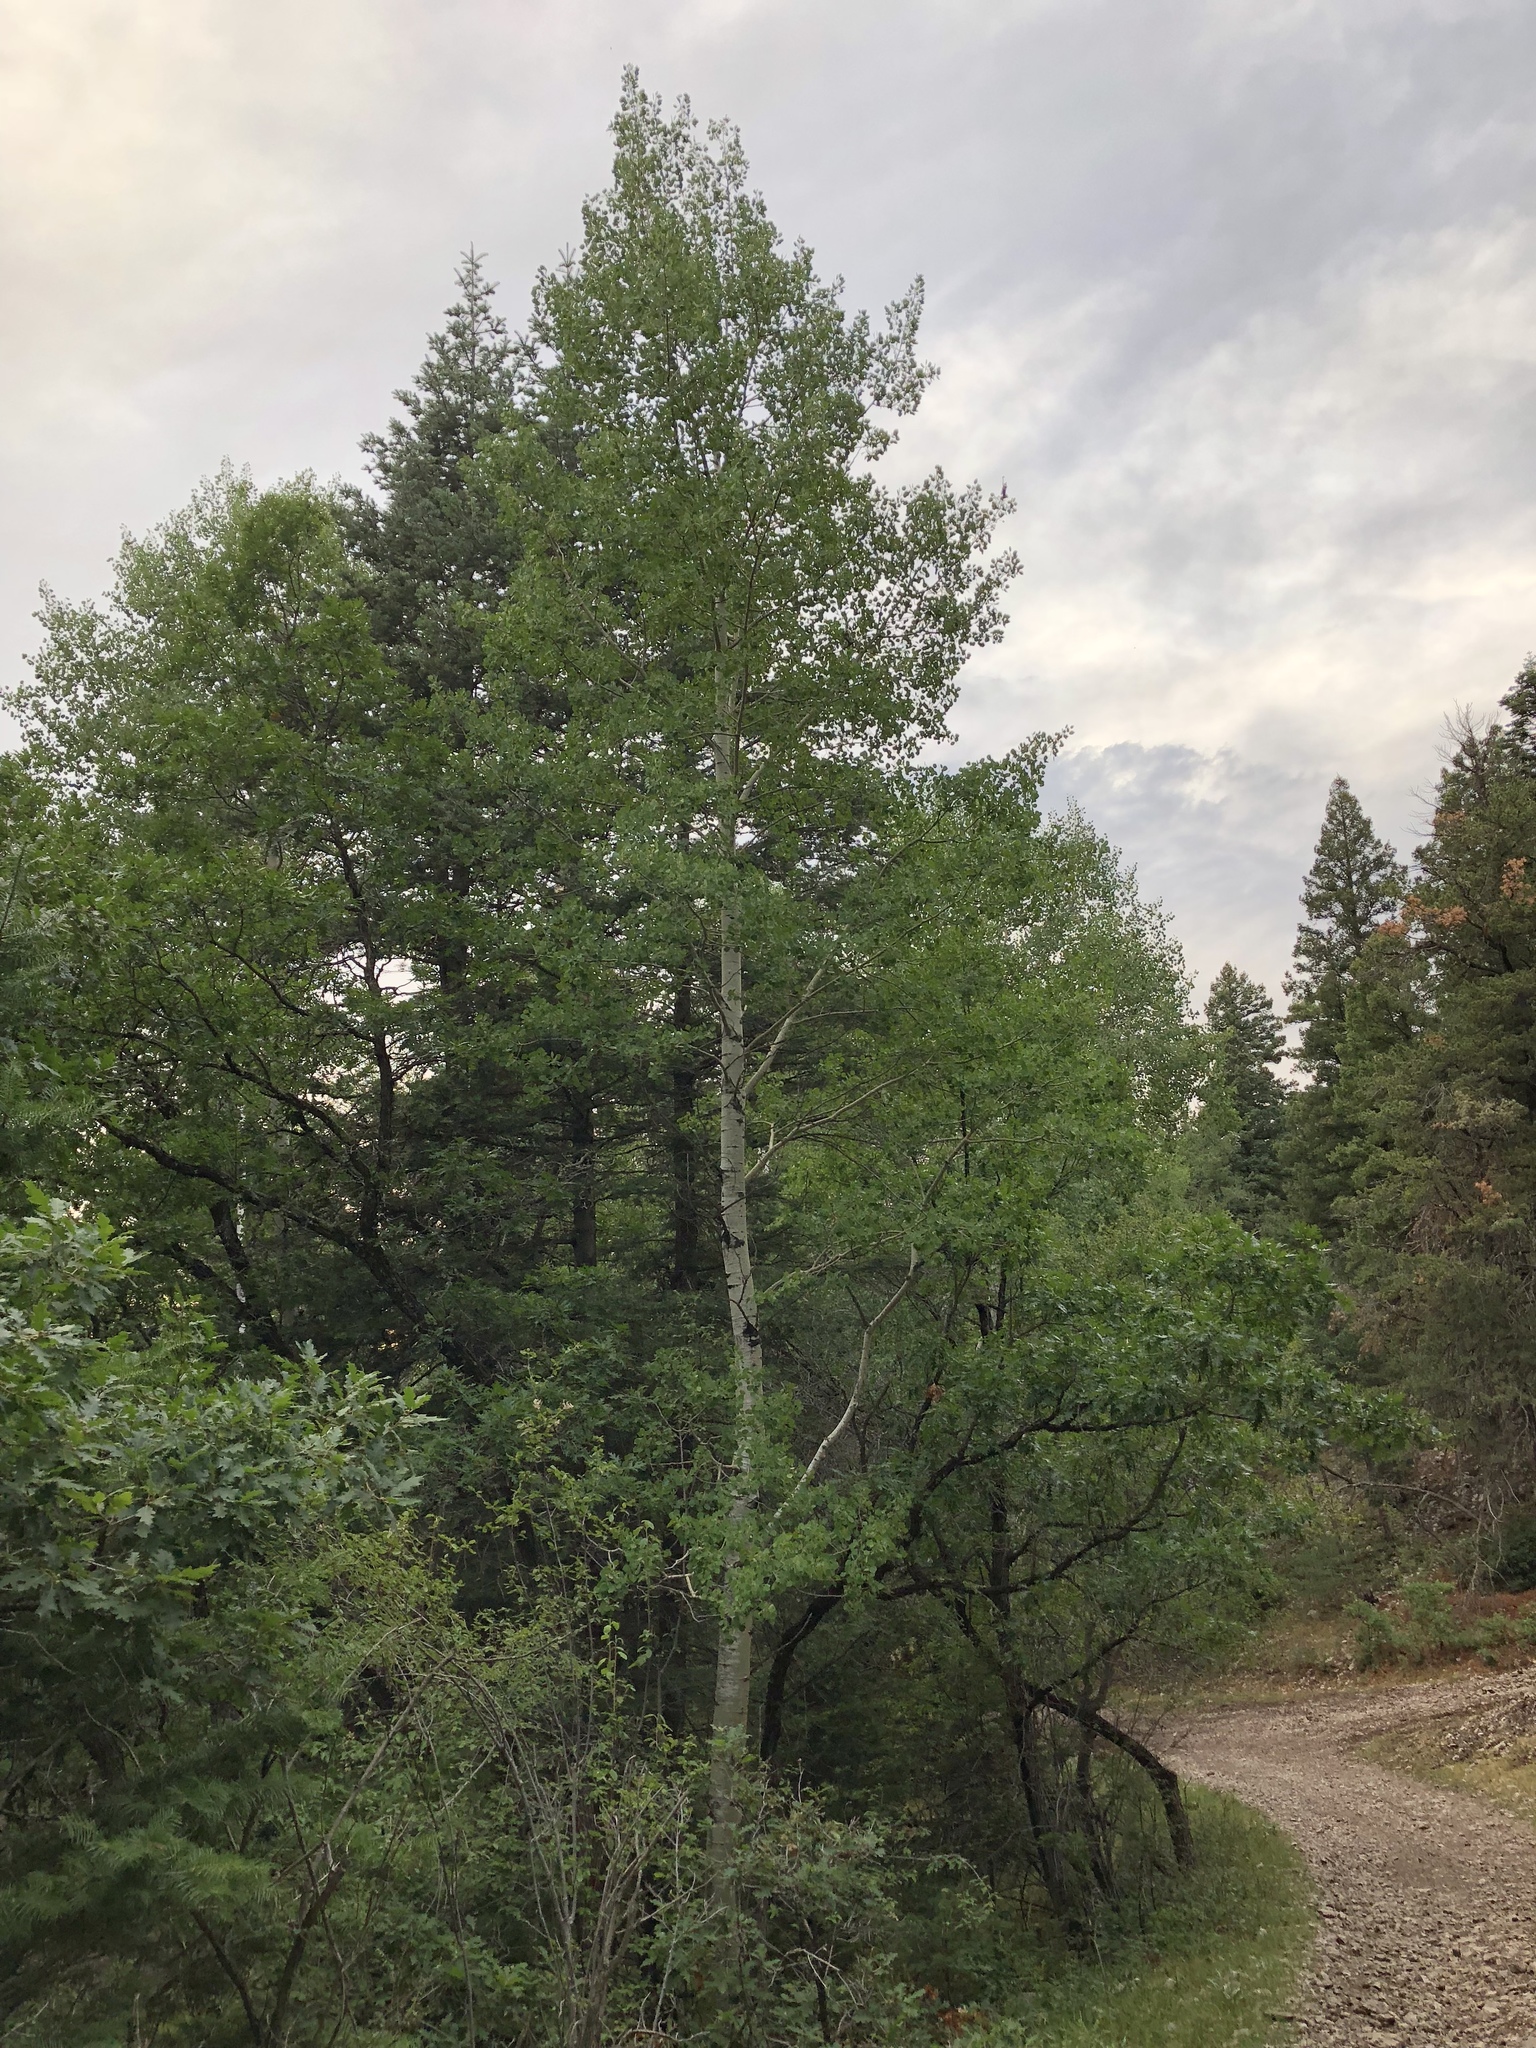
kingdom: Plantae
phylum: Tracheophyta
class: Magnoliopsida
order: Malpighiales
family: Salicaceae
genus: Populus
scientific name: Populus tremuloides
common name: Quaking aspen
